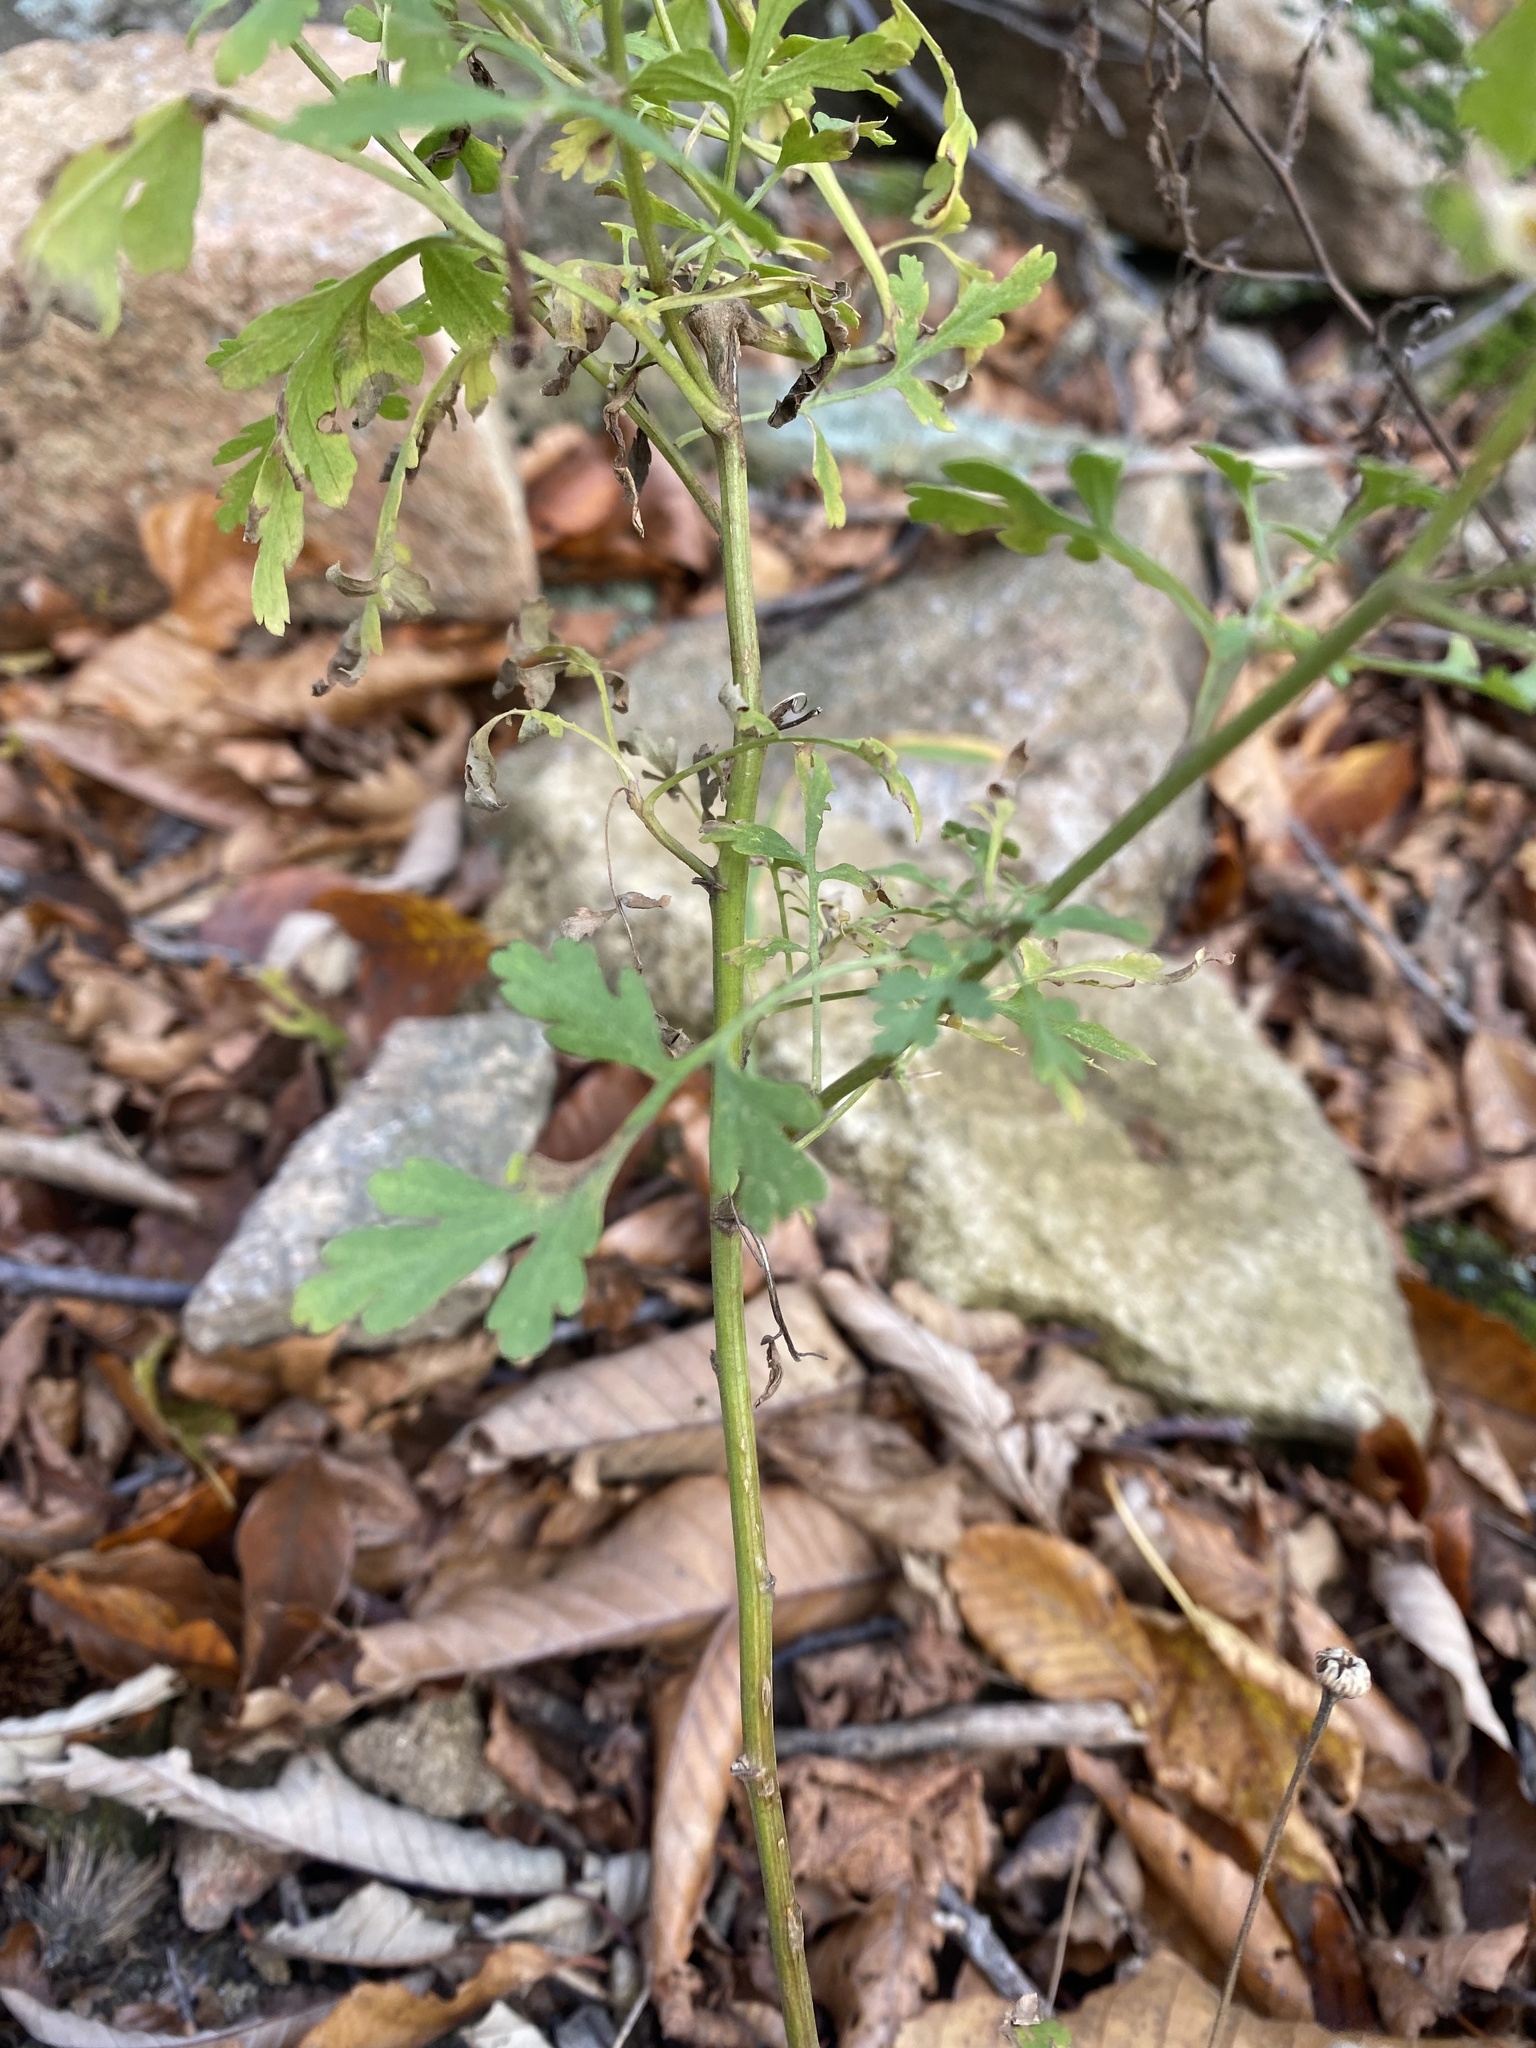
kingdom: Plantae
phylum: Tracheophyta
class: Magnoliopsida
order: Asterales
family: Asteraceae
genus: Tanacetum
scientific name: Tanacetum partheniifolium
